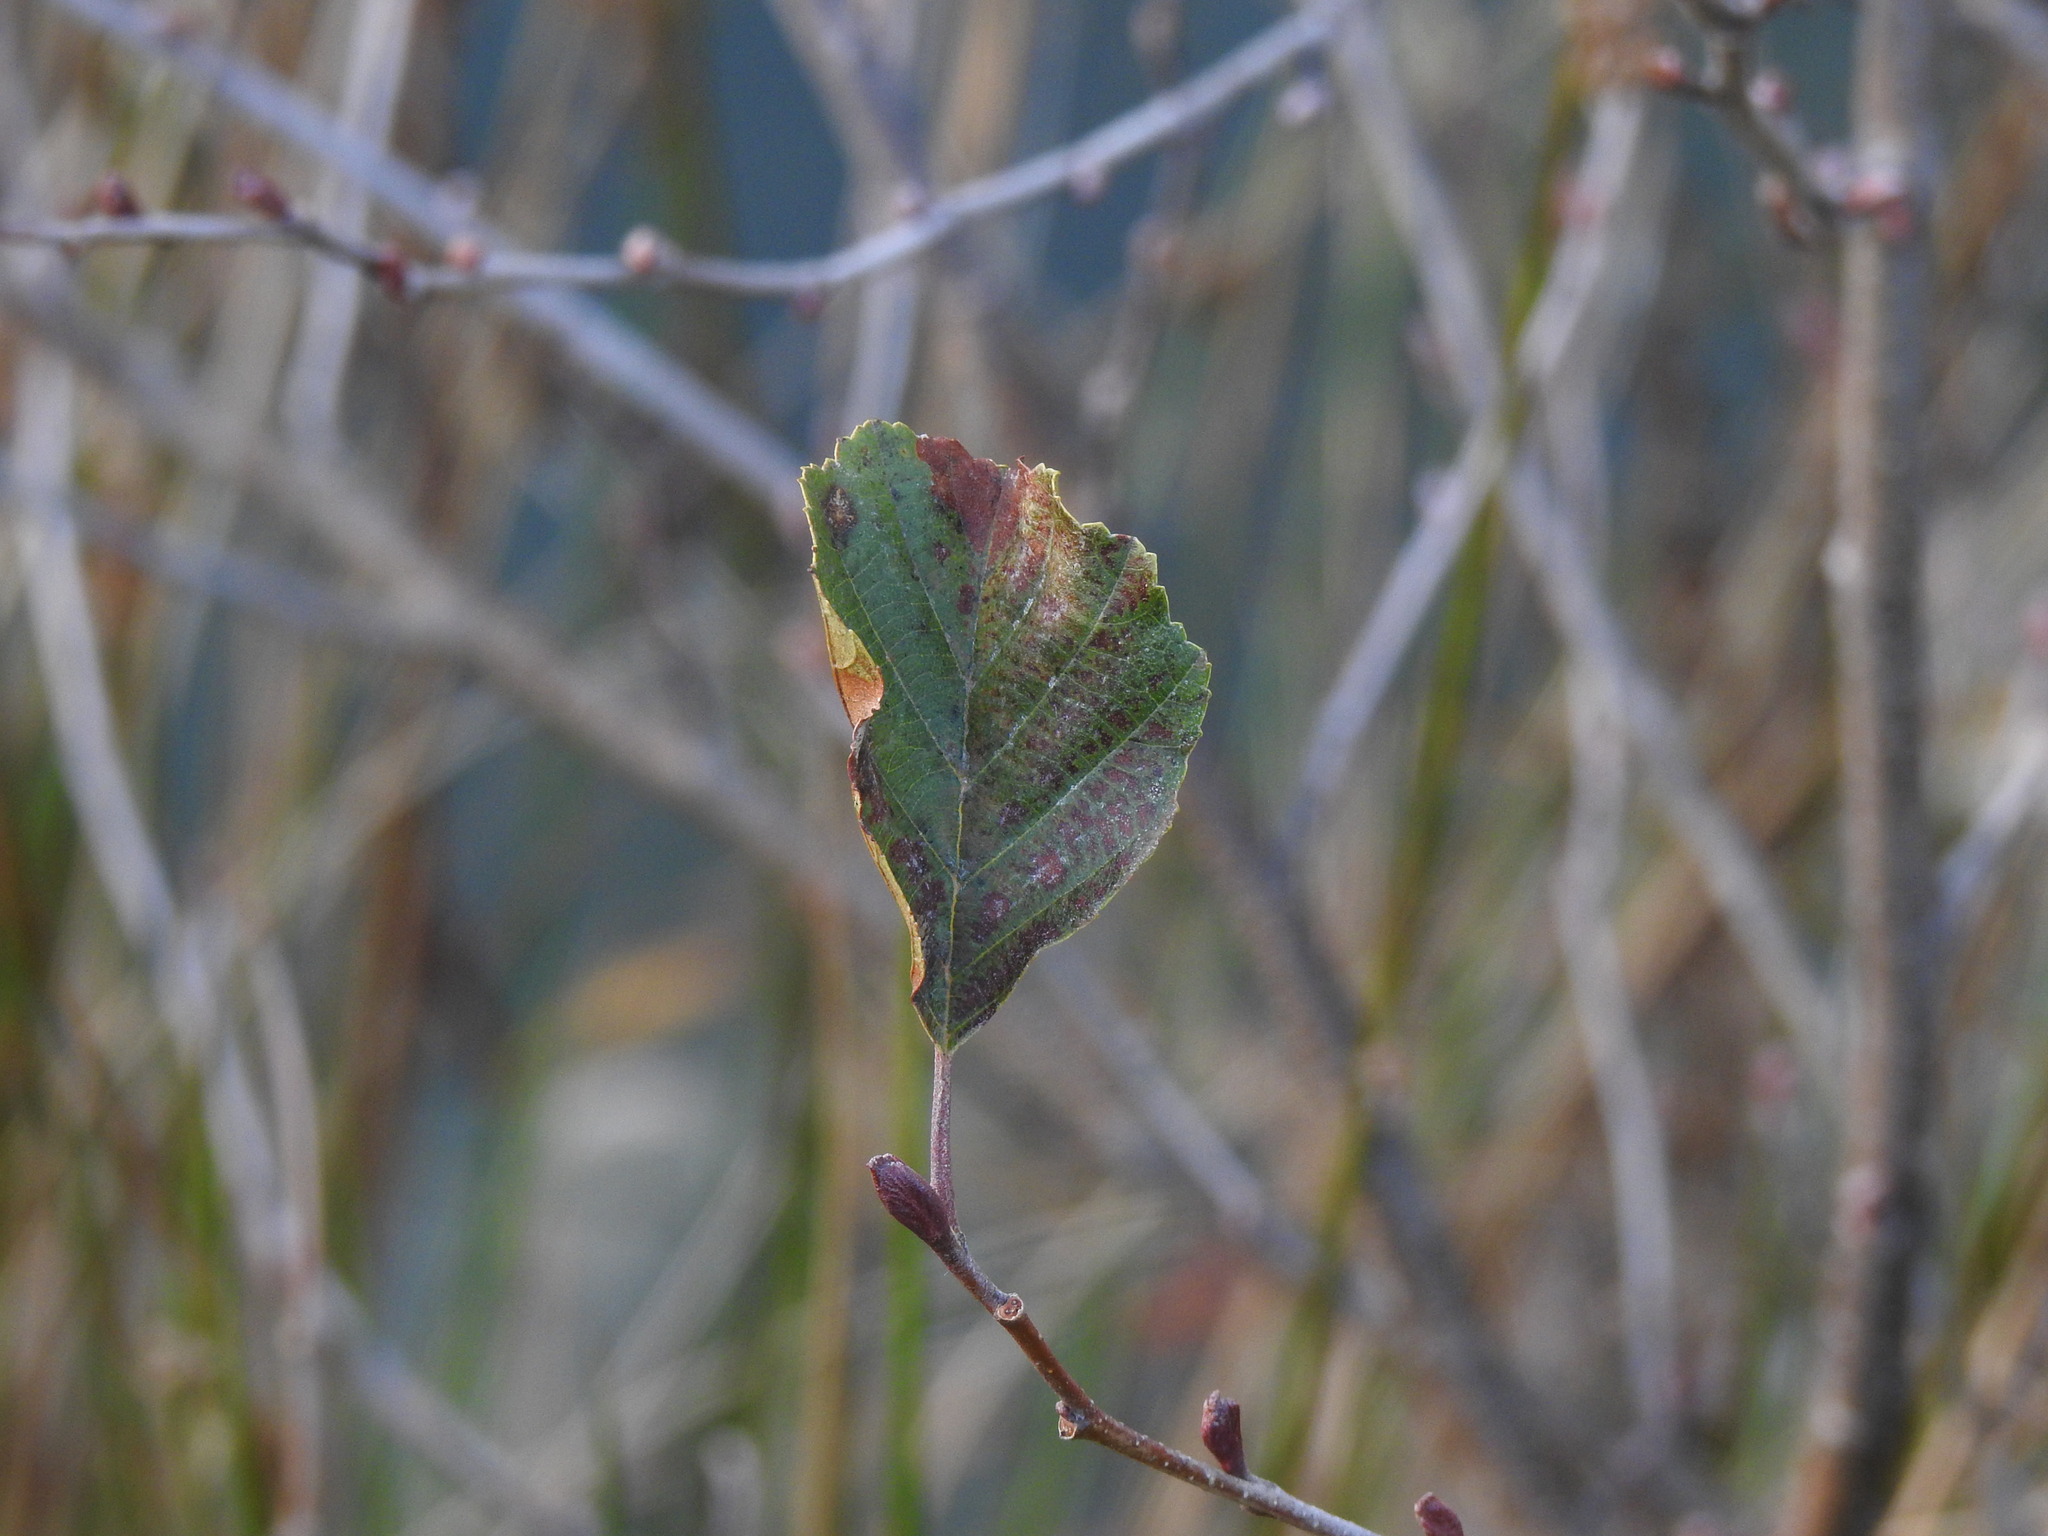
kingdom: Plantae
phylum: Tracheophyta
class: Magnoliopsida
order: Fagales
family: Betulaceae
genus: Alnus
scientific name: Alnus lusitanica
